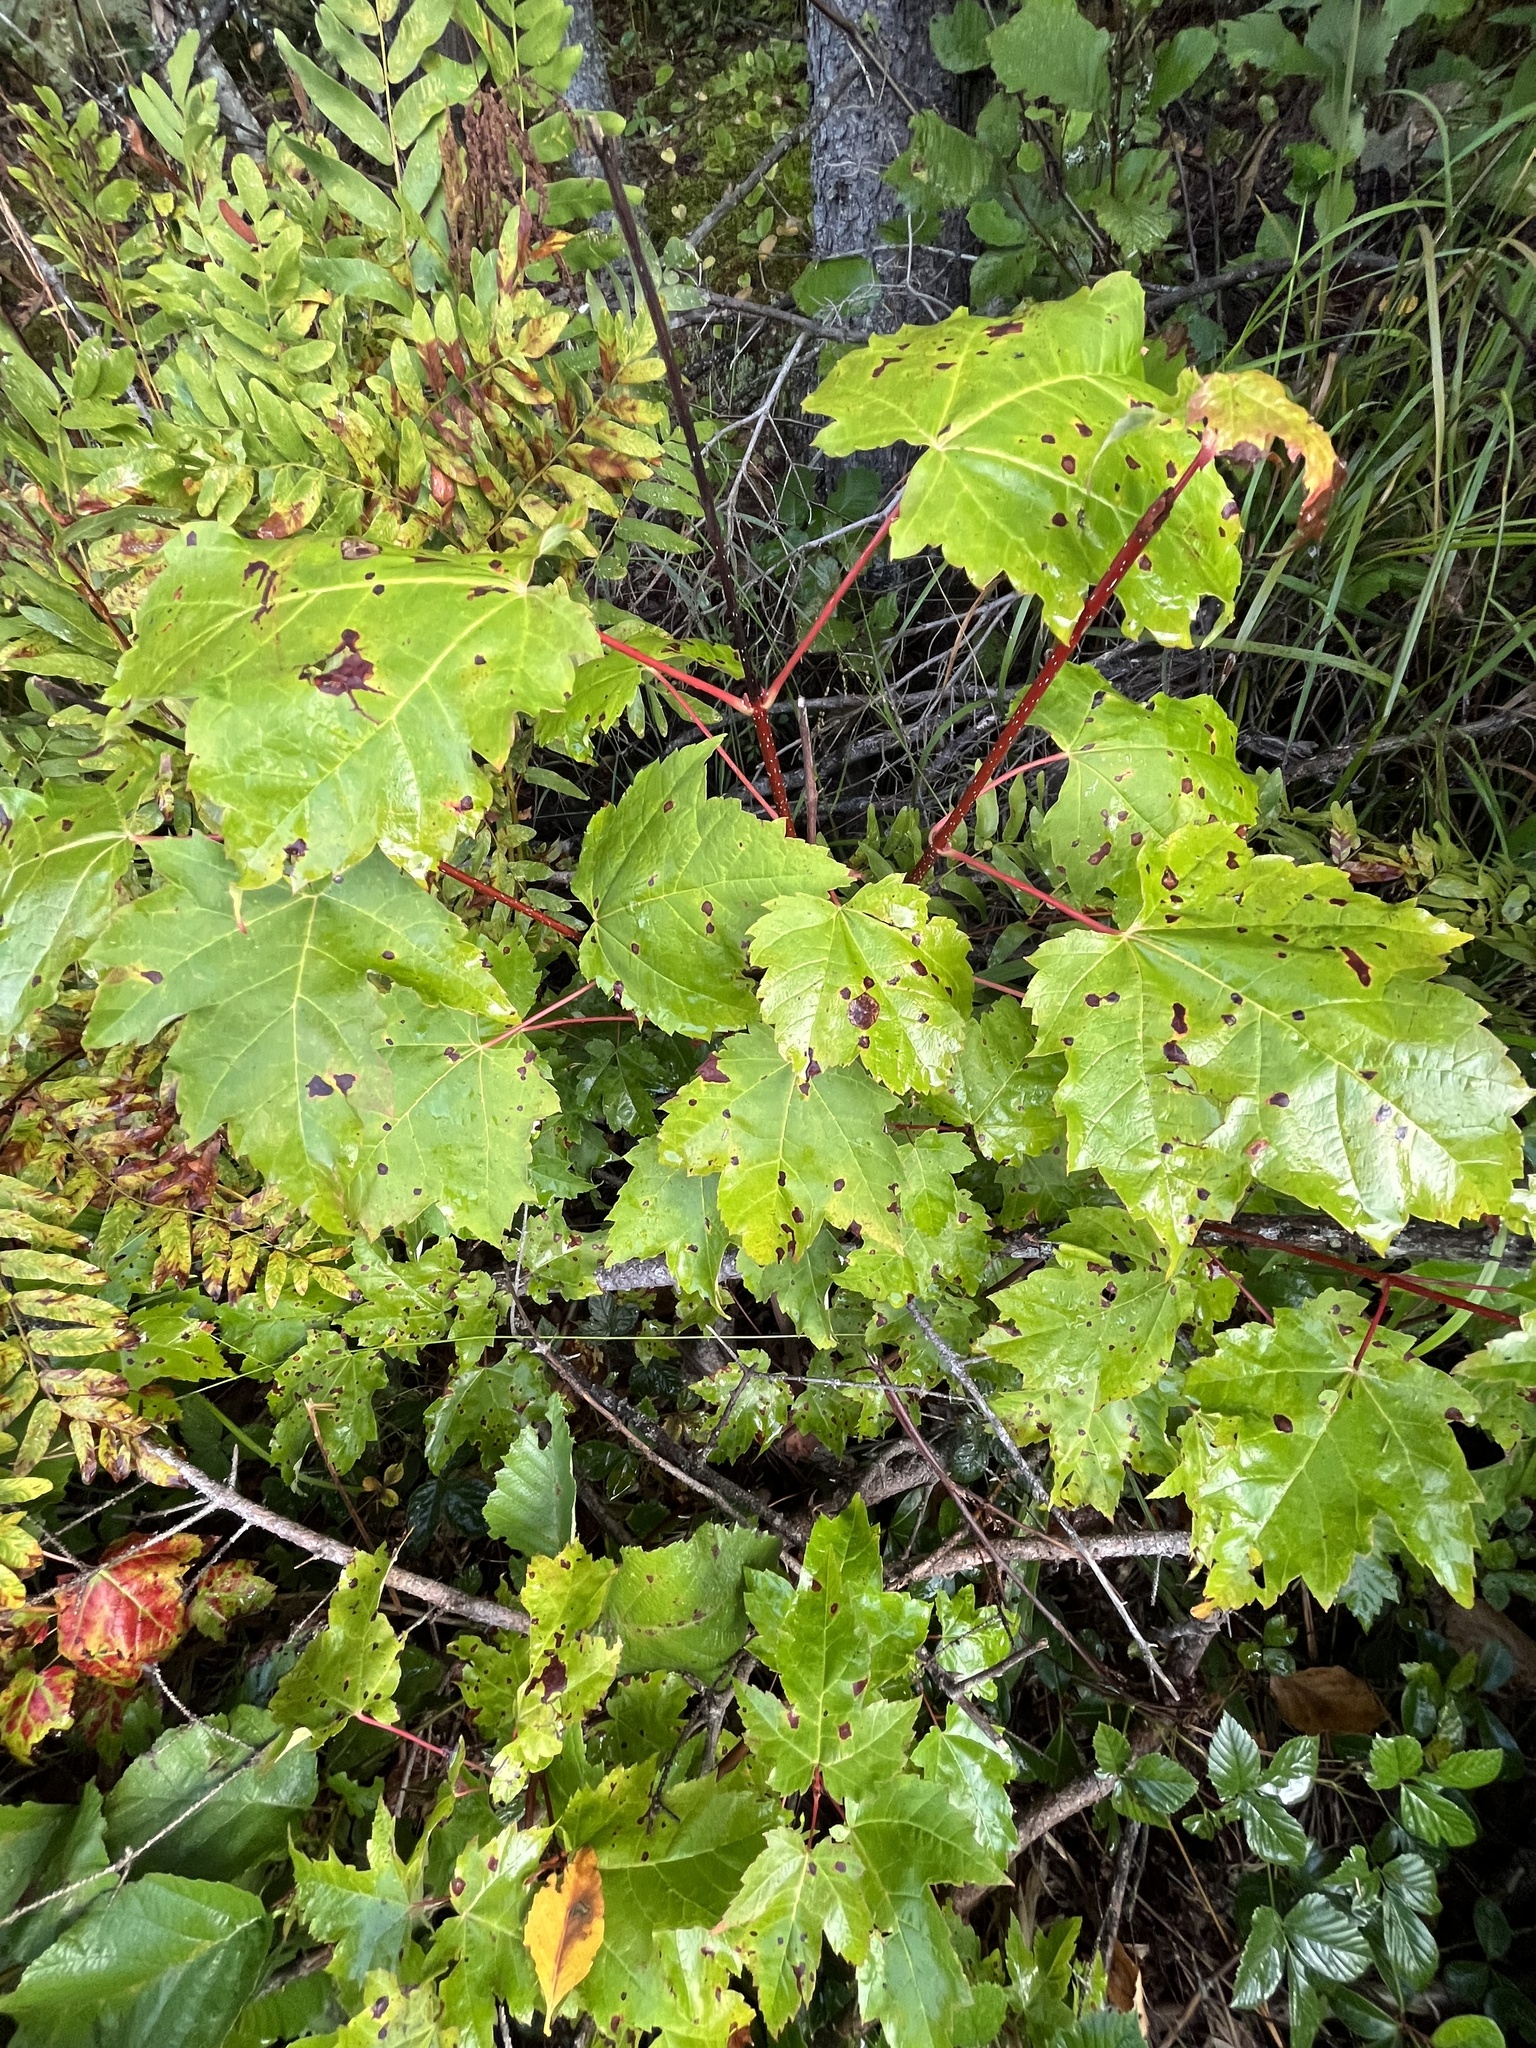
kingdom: Plantae
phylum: Tracheophyta
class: Magnoliopsida
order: Sapindales
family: Sapindaceae
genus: Acer
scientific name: Acer rubrum
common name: Red maple
